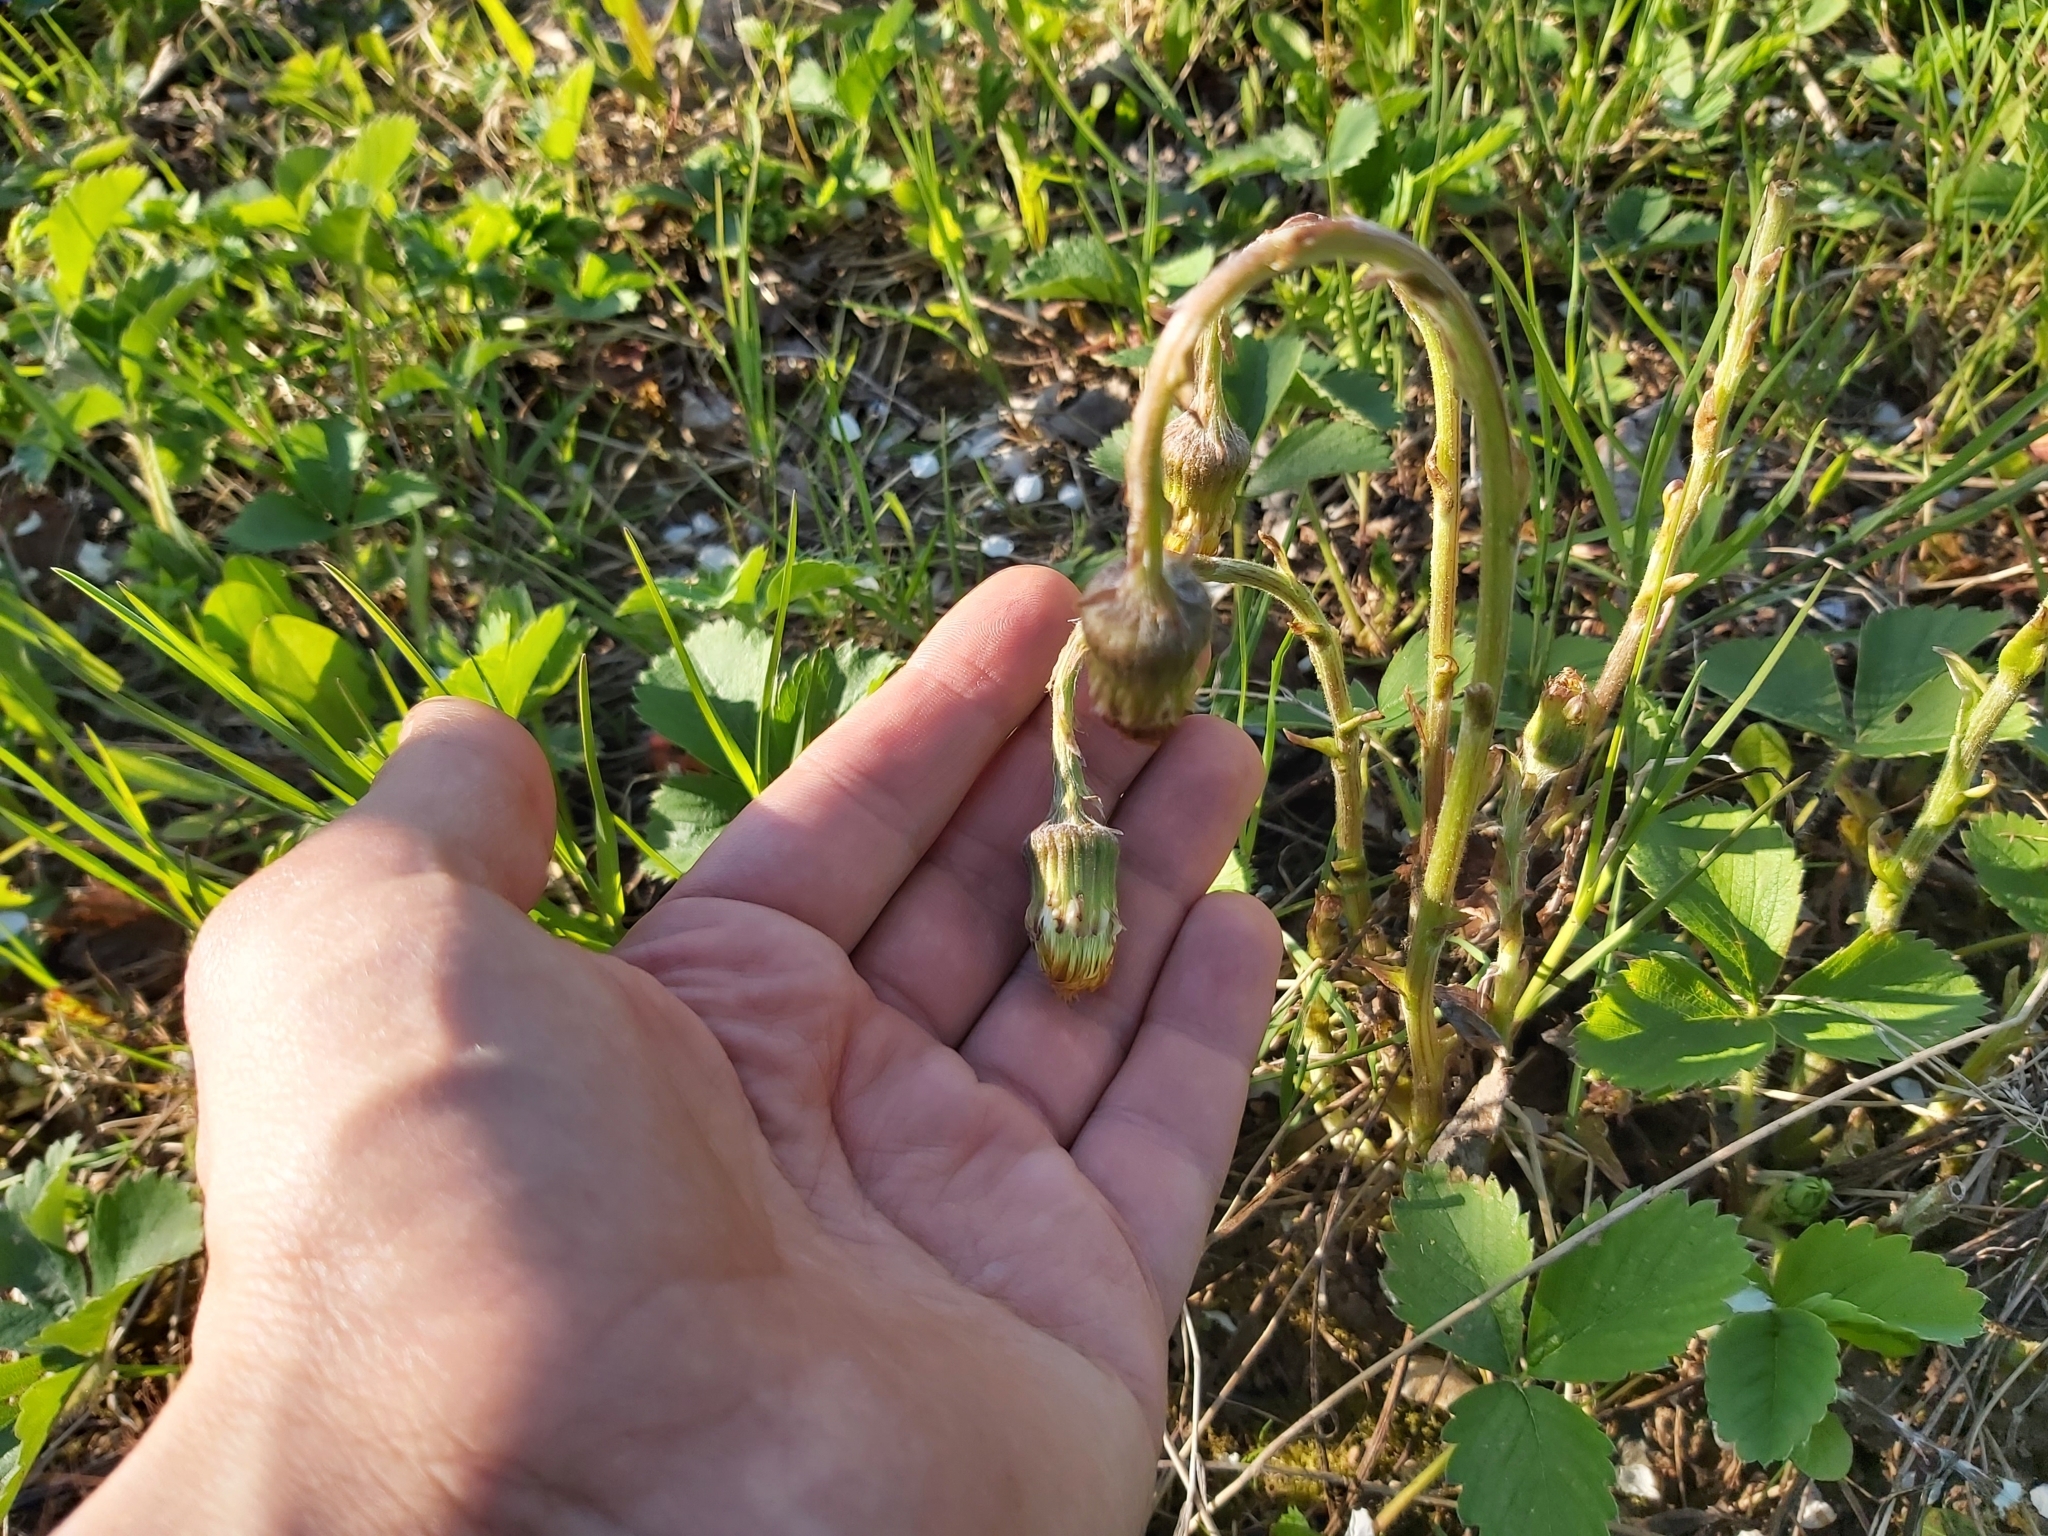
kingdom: Plantae
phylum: Tracheophyta
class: Magnoliopsida
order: Asterales
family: Asteraceae
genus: Tussilago
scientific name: Tussilago farfara
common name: Coltsfoot
